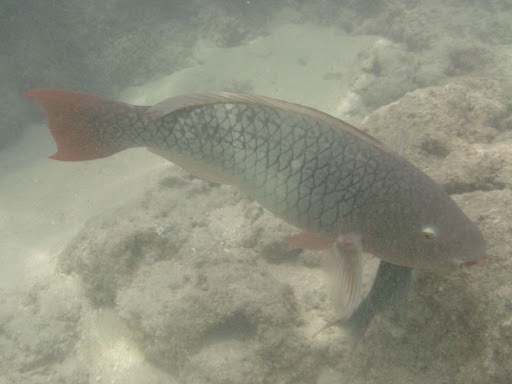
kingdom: Animalia
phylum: Chordata
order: Perciformes
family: Scaridae
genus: Scarus
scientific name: Scarus rubroviolaceus
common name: Ember parrotfish
